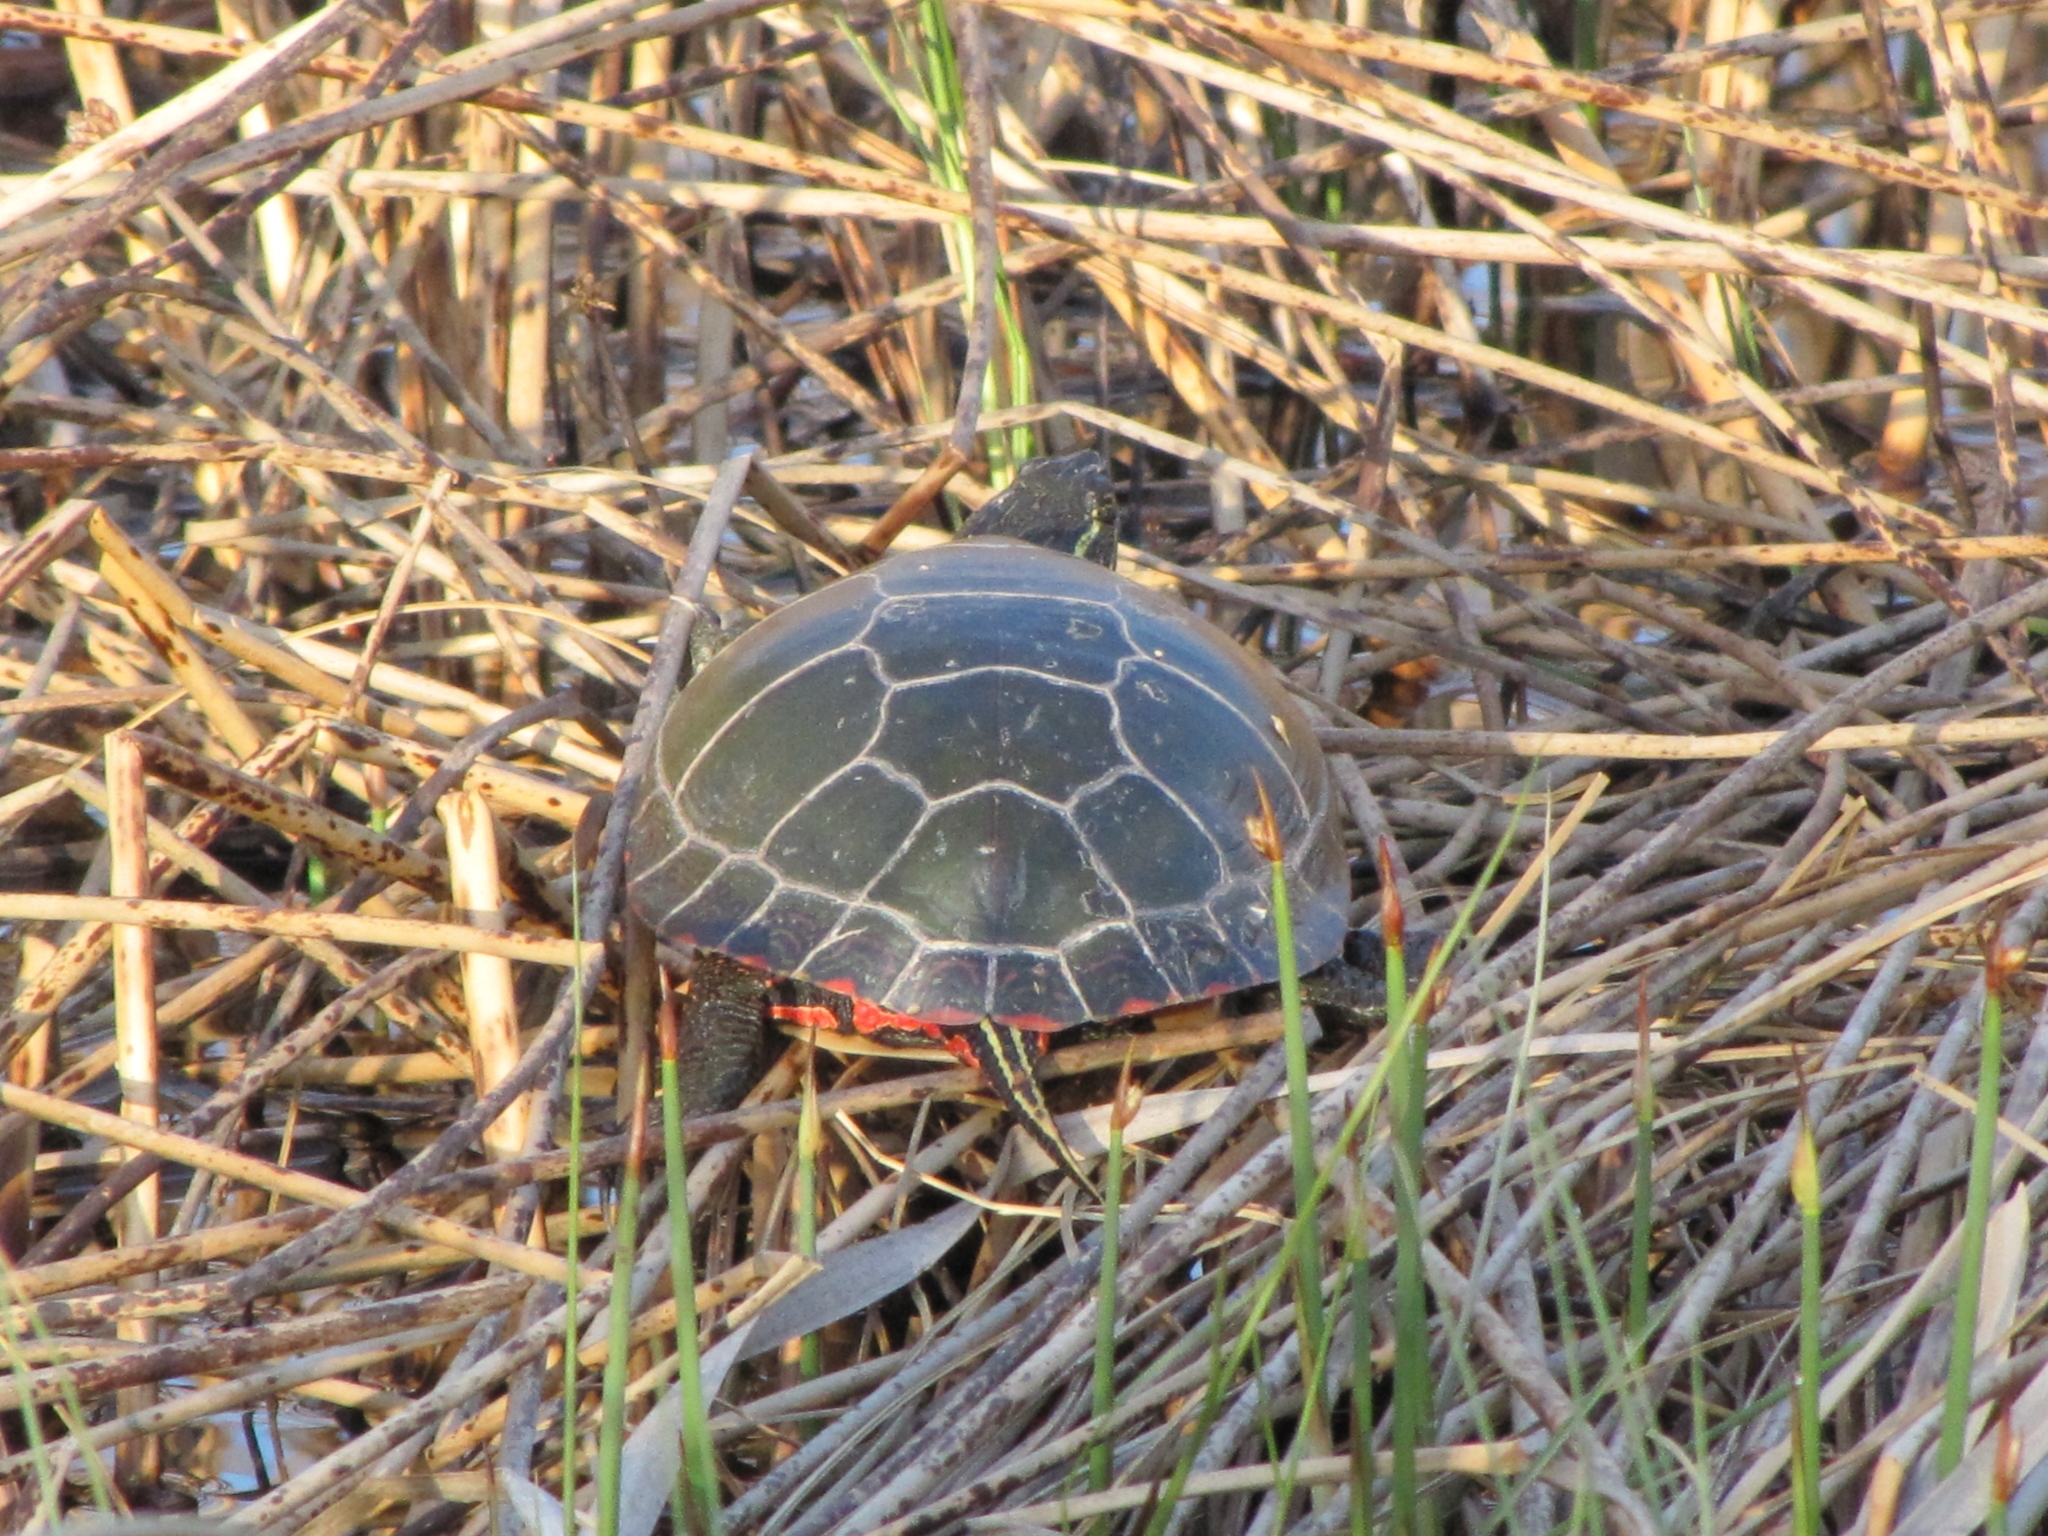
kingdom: Animalia
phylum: Chordata
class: Testudines
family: Emydidae
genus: Chrysemys
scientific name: Chrysemys picta
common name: Painted turtle
